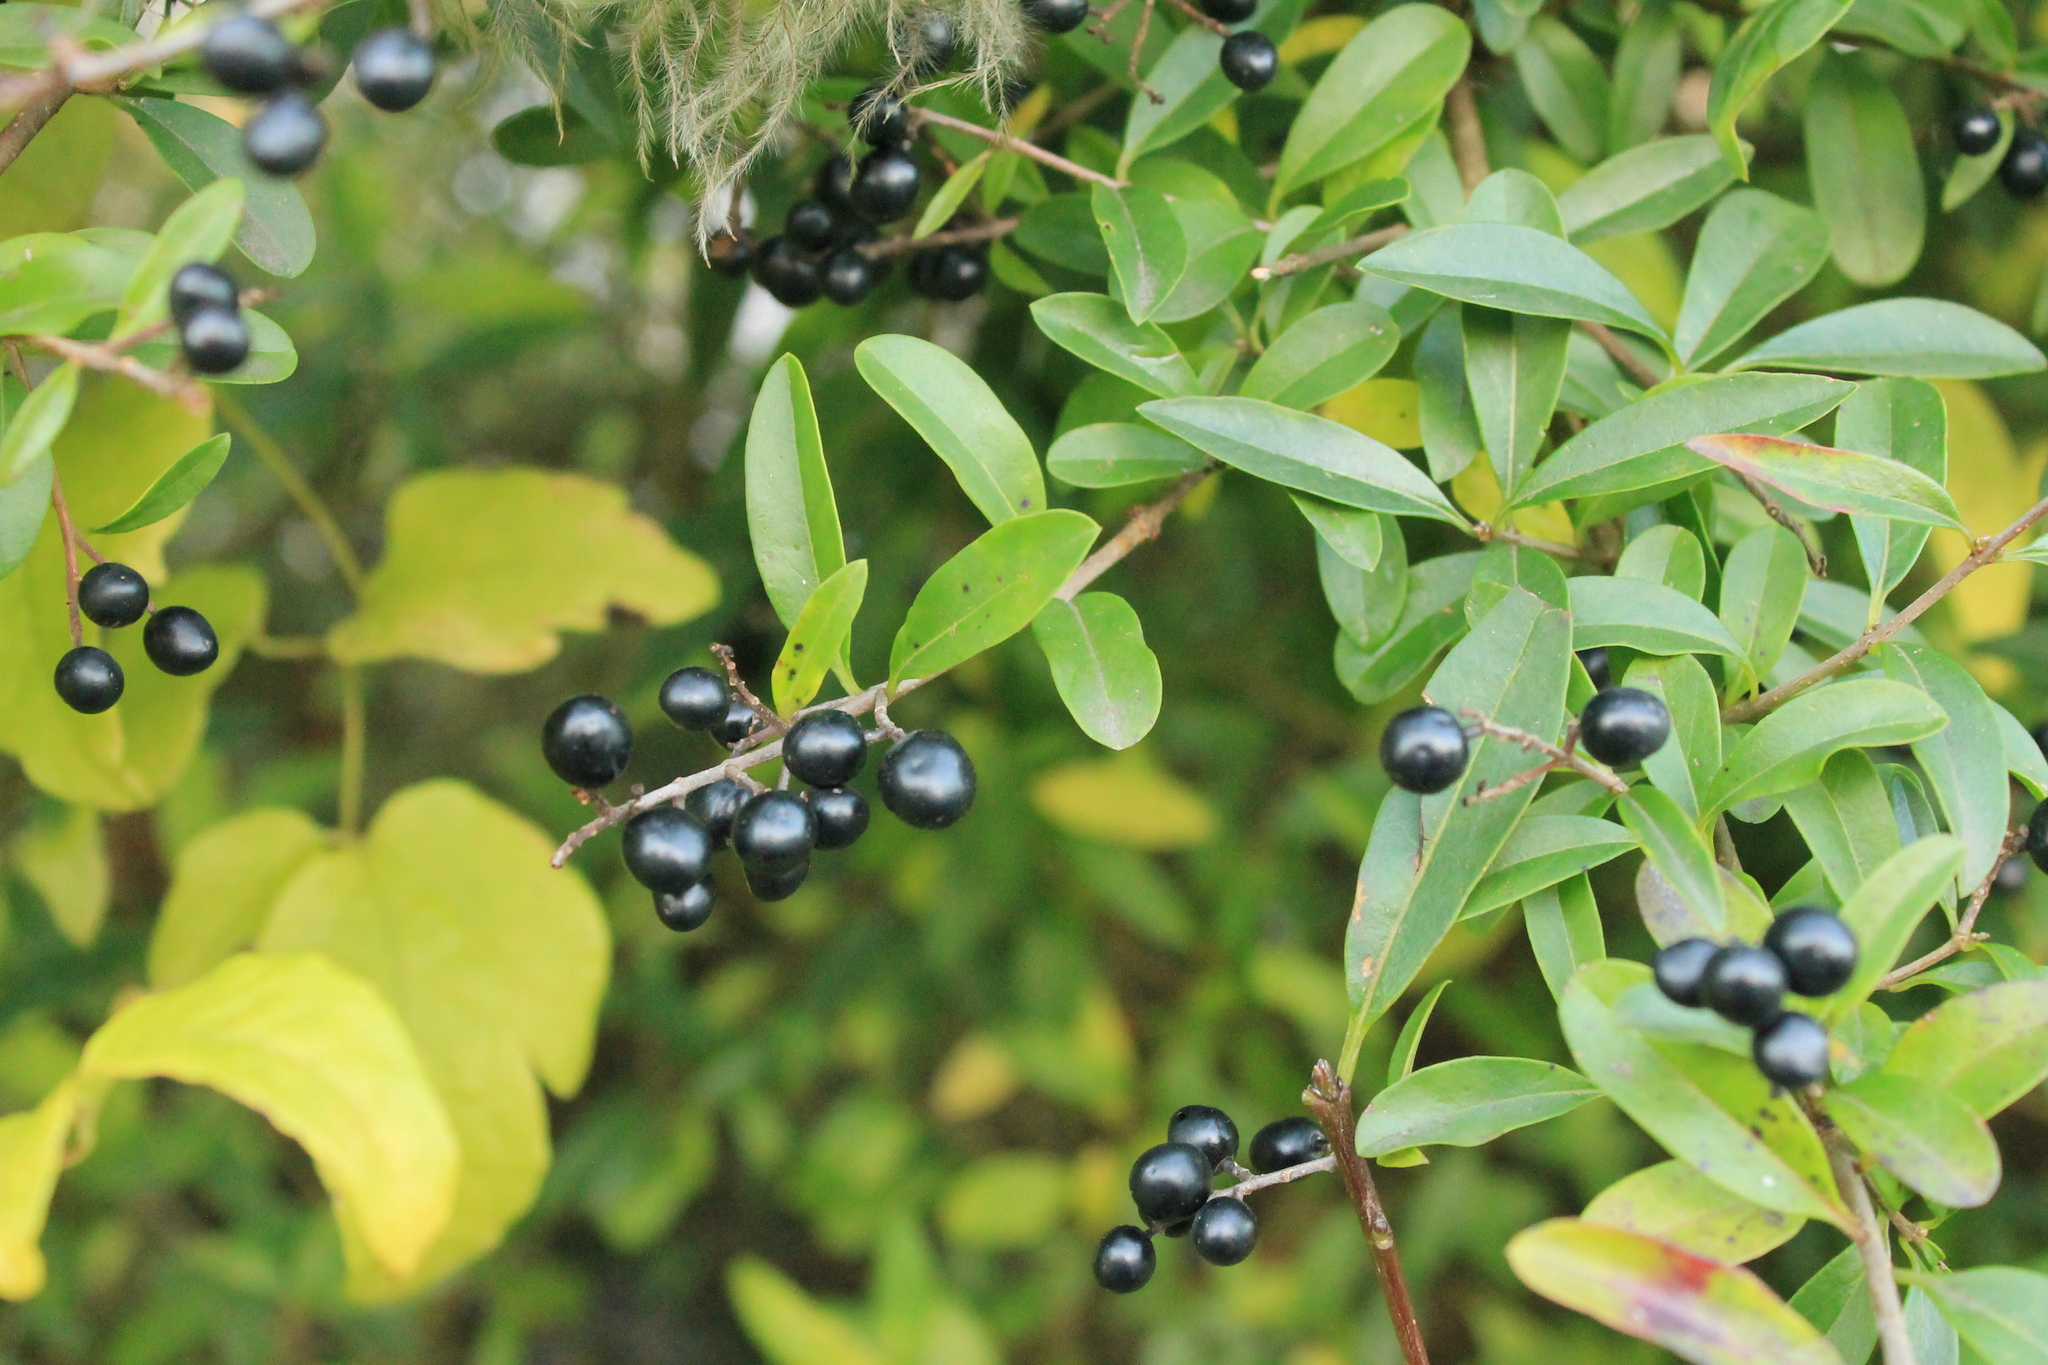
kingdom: Plantae
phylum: Tracheophyta
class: Magnoliopsida
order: Lamiales
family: Oleaceae
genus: Ligustrum
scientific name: Ligustrum vulgare
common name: Wild privet
